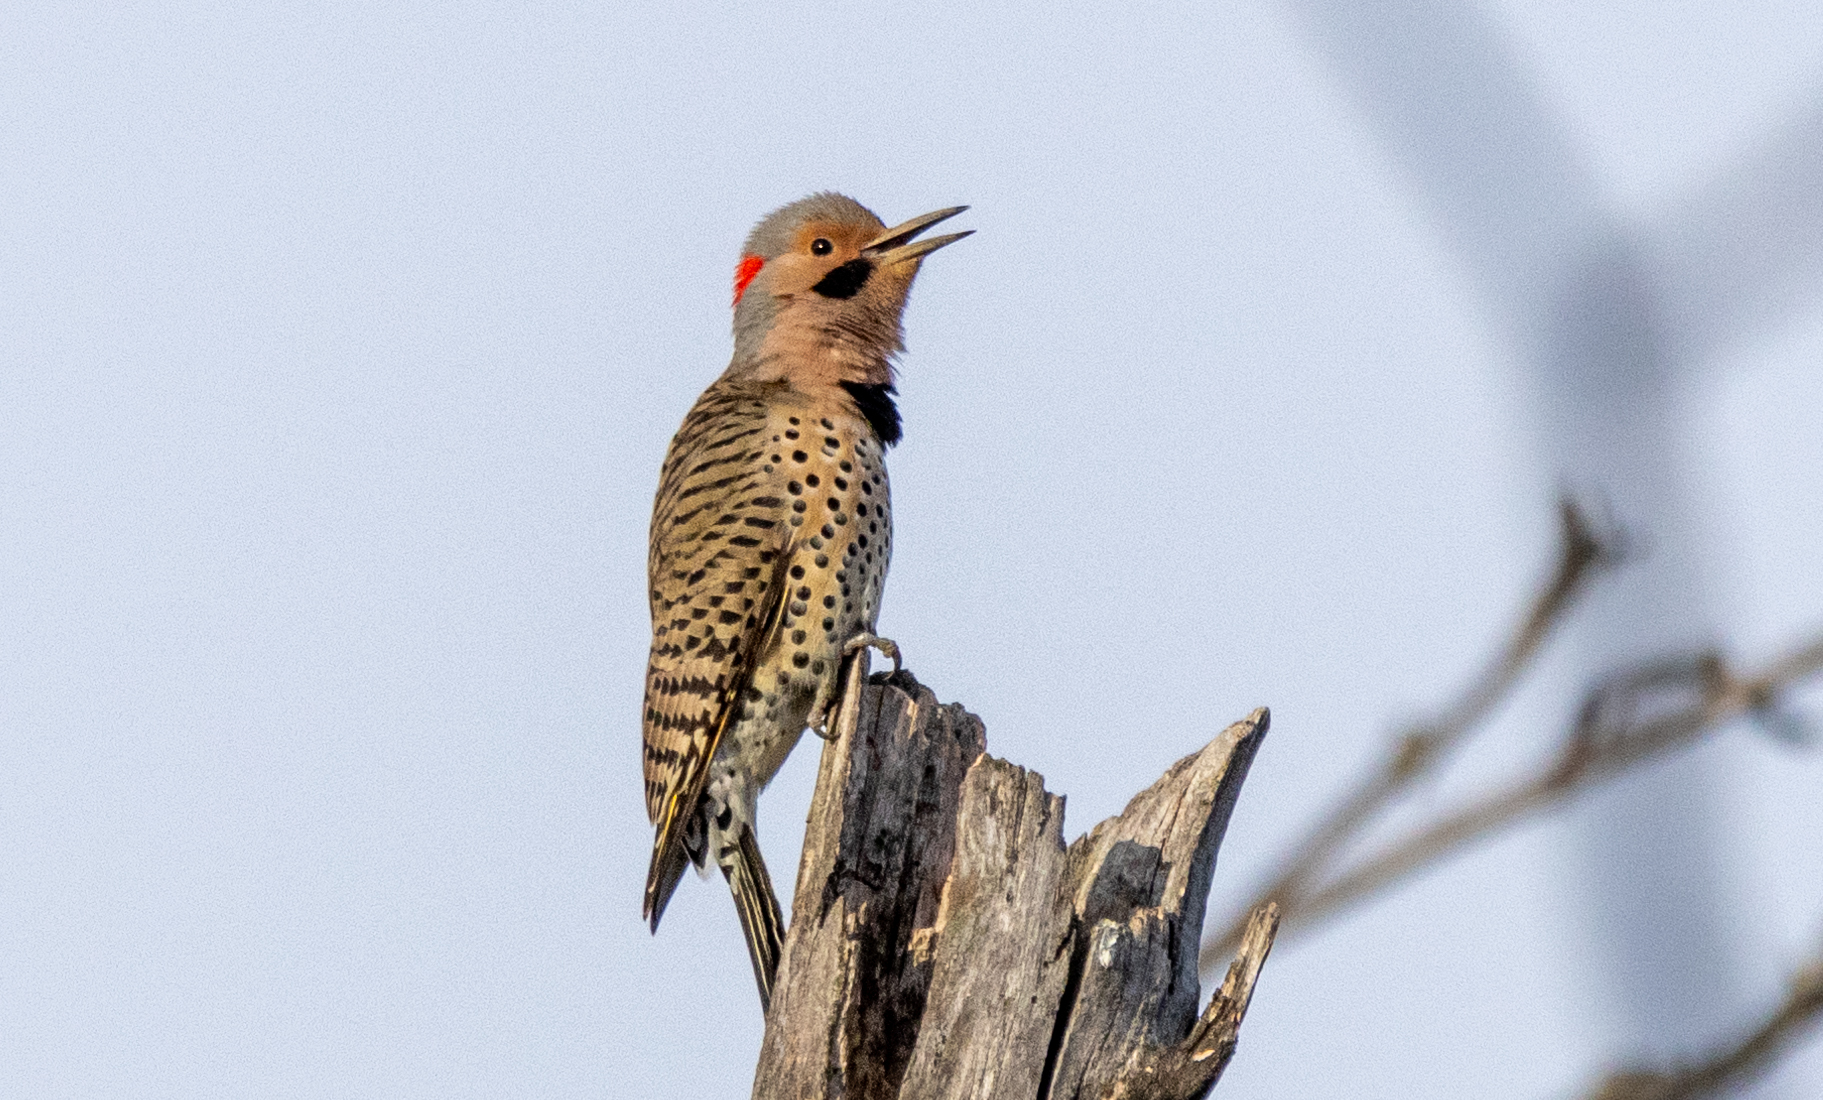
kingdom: Animalia
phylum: Chordata
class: Aves
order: Piciformes
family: Picidae
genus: Colaptes
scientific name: Colaptes auratus
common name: Northern flicker
